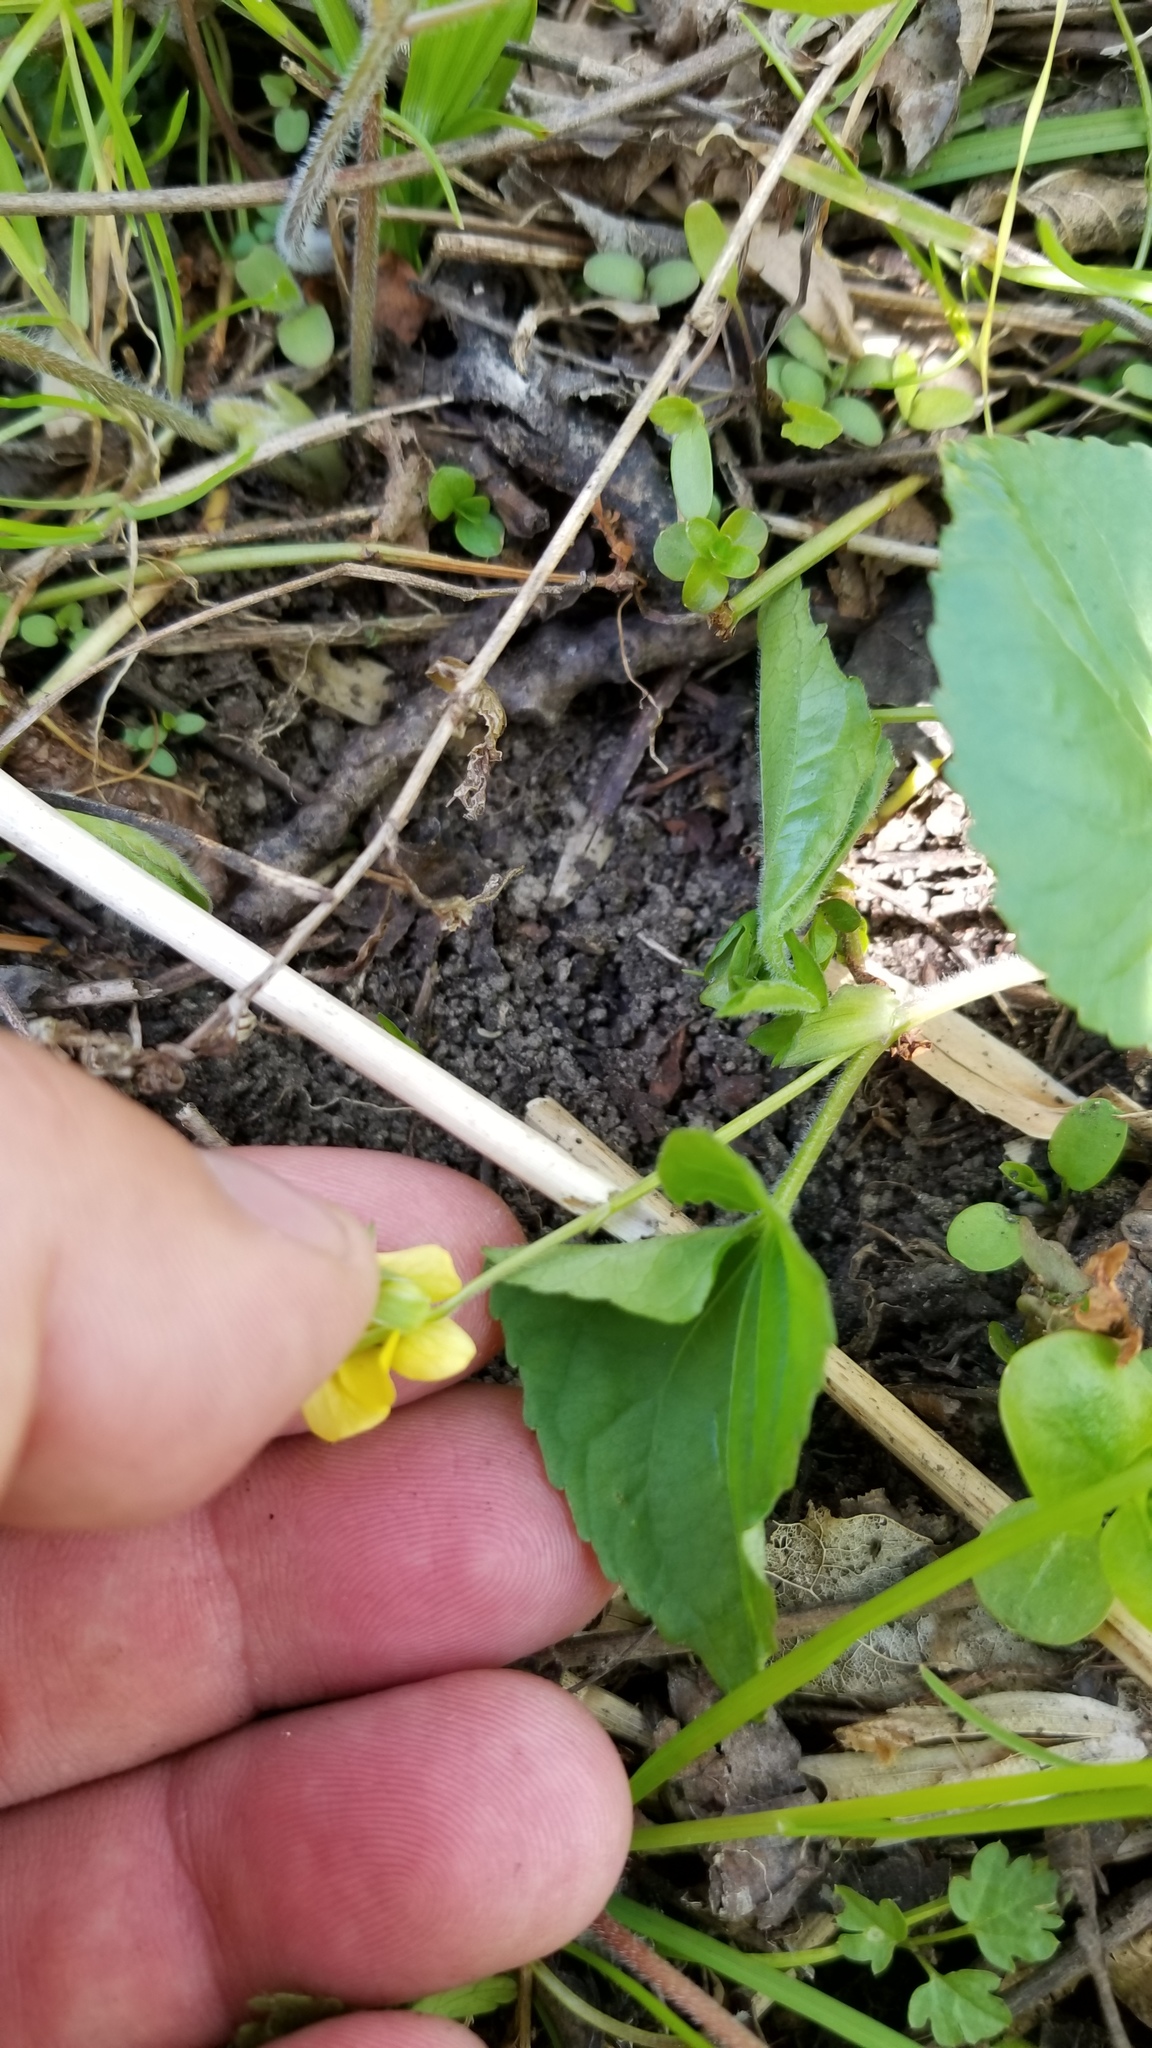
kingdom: Plantae
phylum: Tracheophyta
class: Magnoliopsida
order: Malpighiales
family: Violaceae
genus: Viola
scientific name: Viola eriocarpa
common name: Smooth yellow violet
